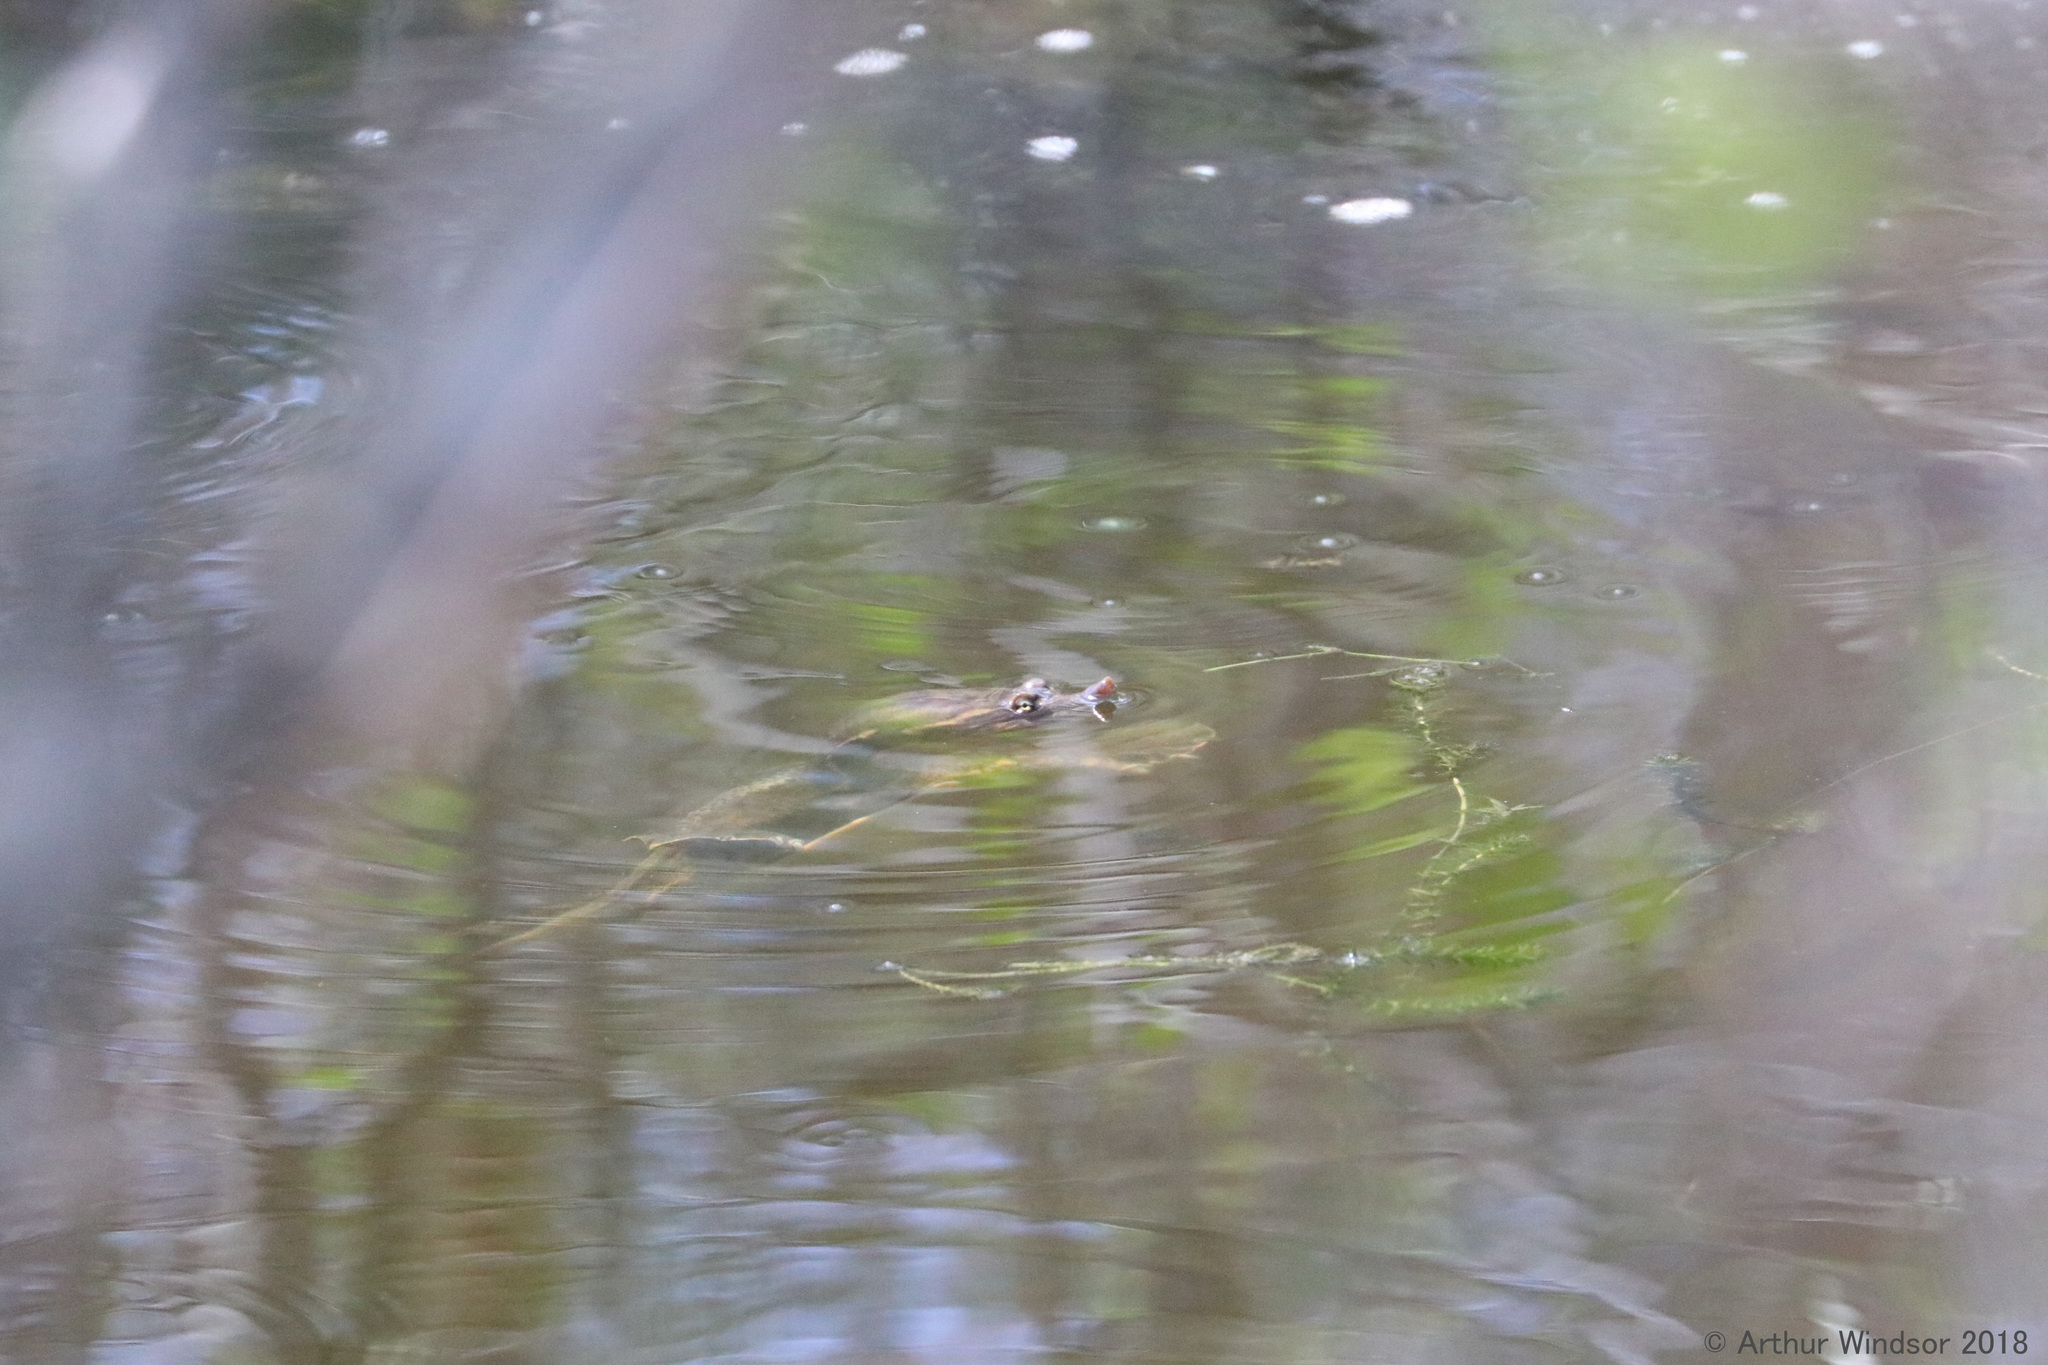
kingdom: Animalia
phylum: Chordata
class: Testudines
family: Trionychidae
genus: Apalone
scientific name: Apalone ferox
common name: Florida softshell turtle
